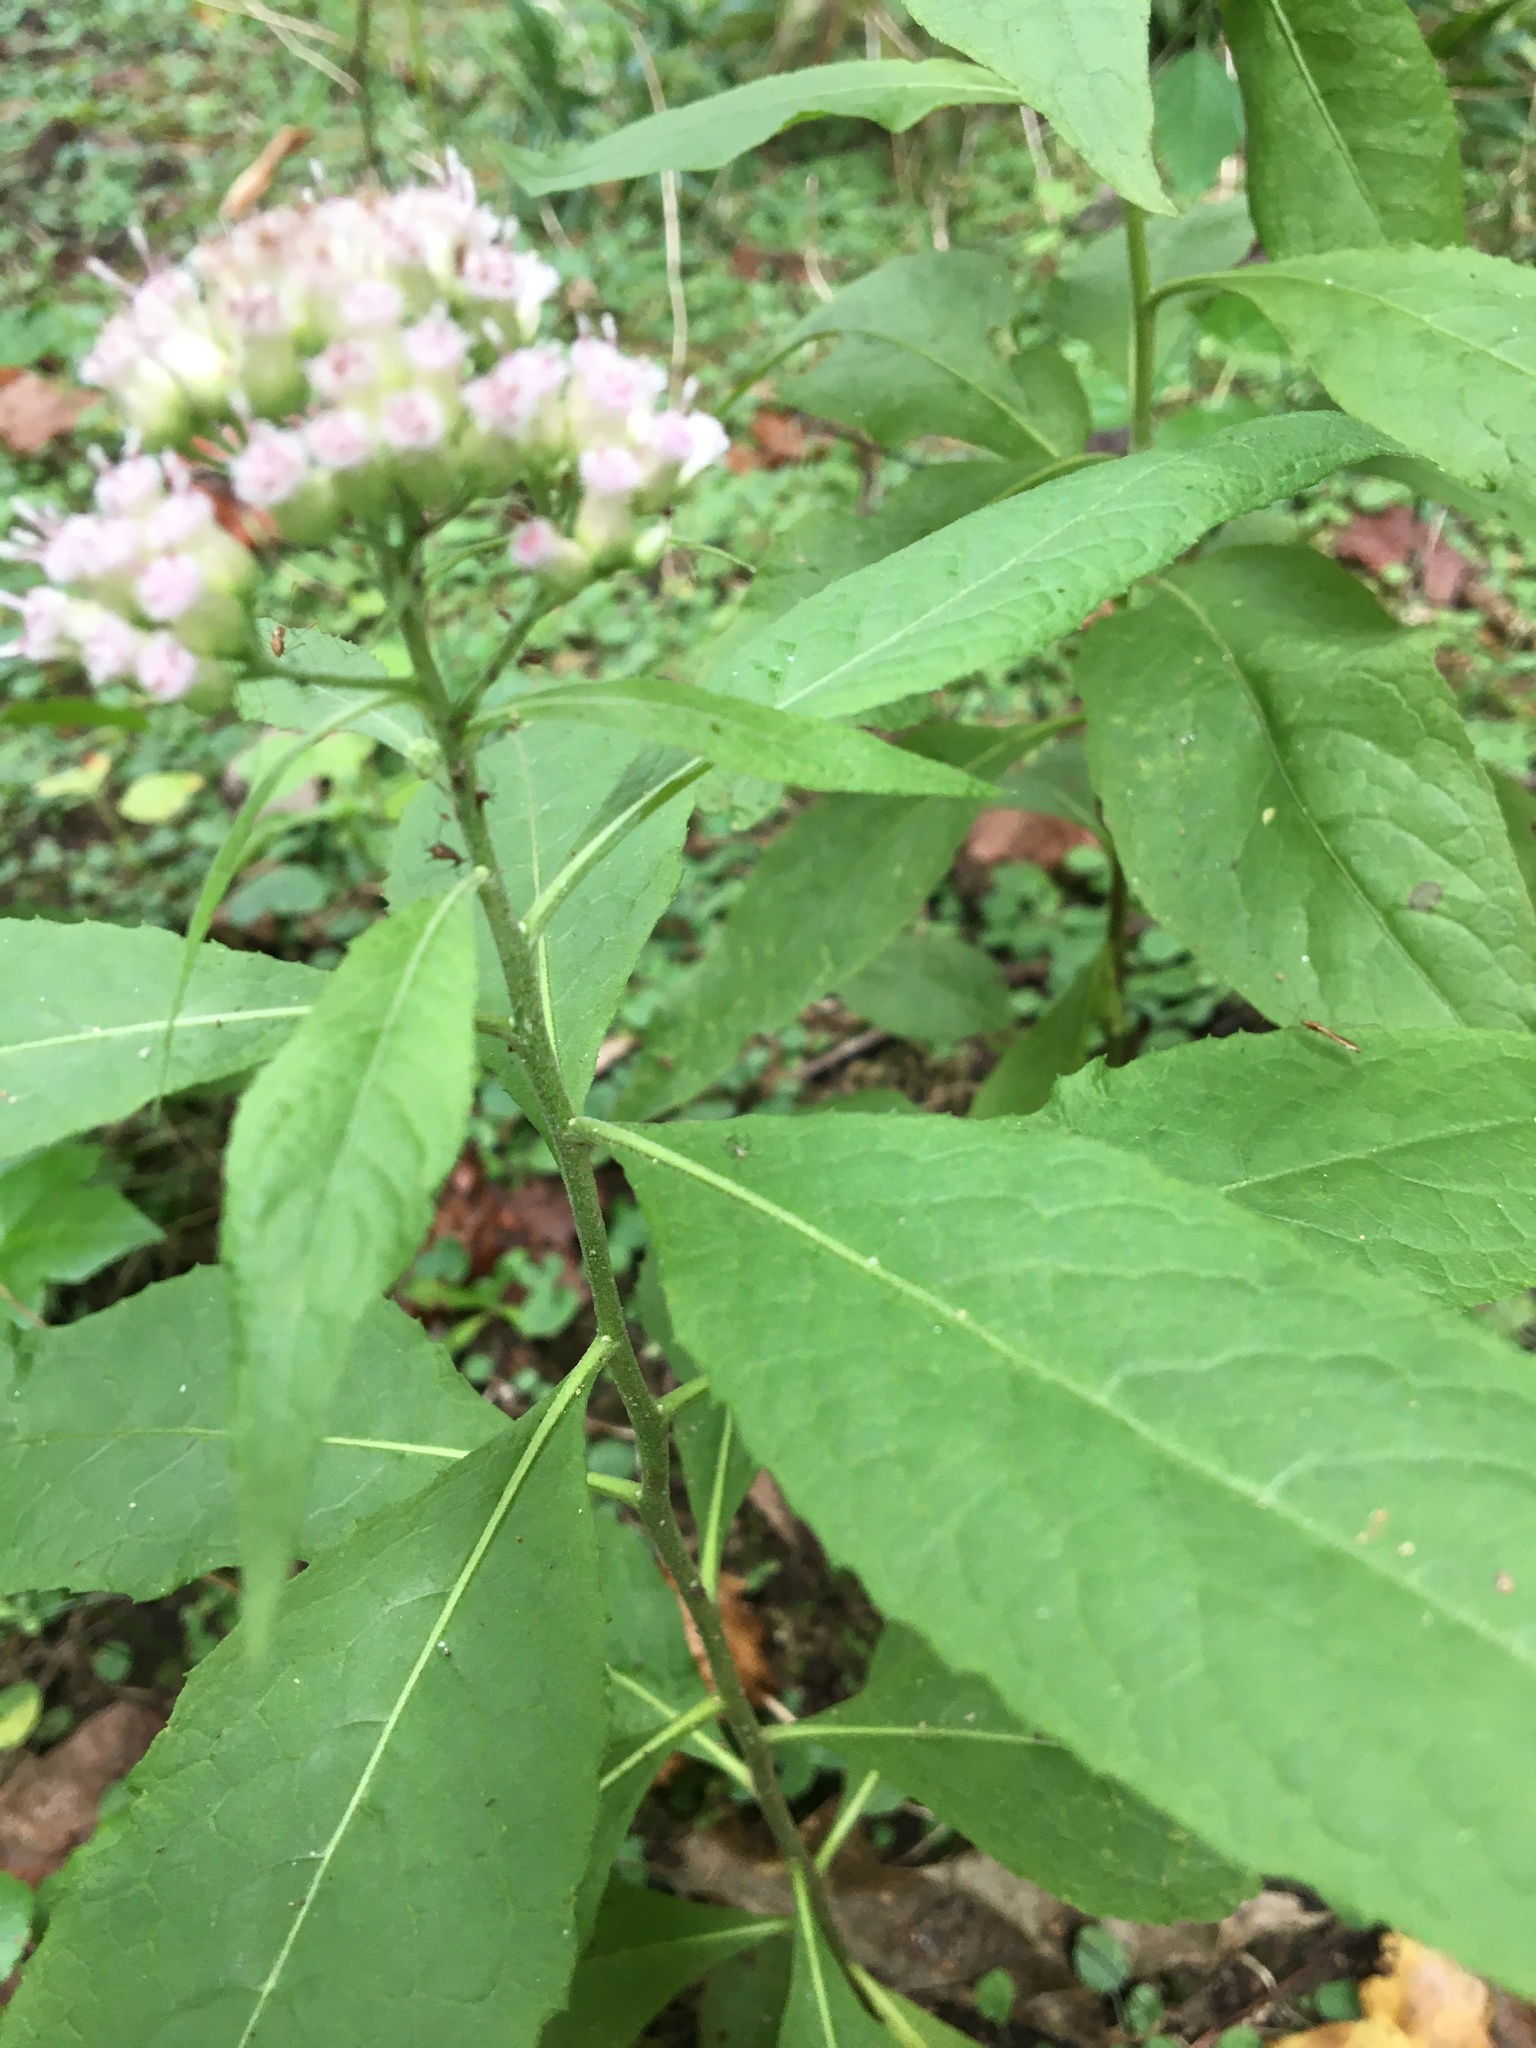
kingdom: Plantae
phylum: Tracheophyta
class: Magnoliopsida
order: Asterales
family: Asteraceae
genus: Pluchea
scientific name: Pluchea camphorata
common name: Camphor pluchea
